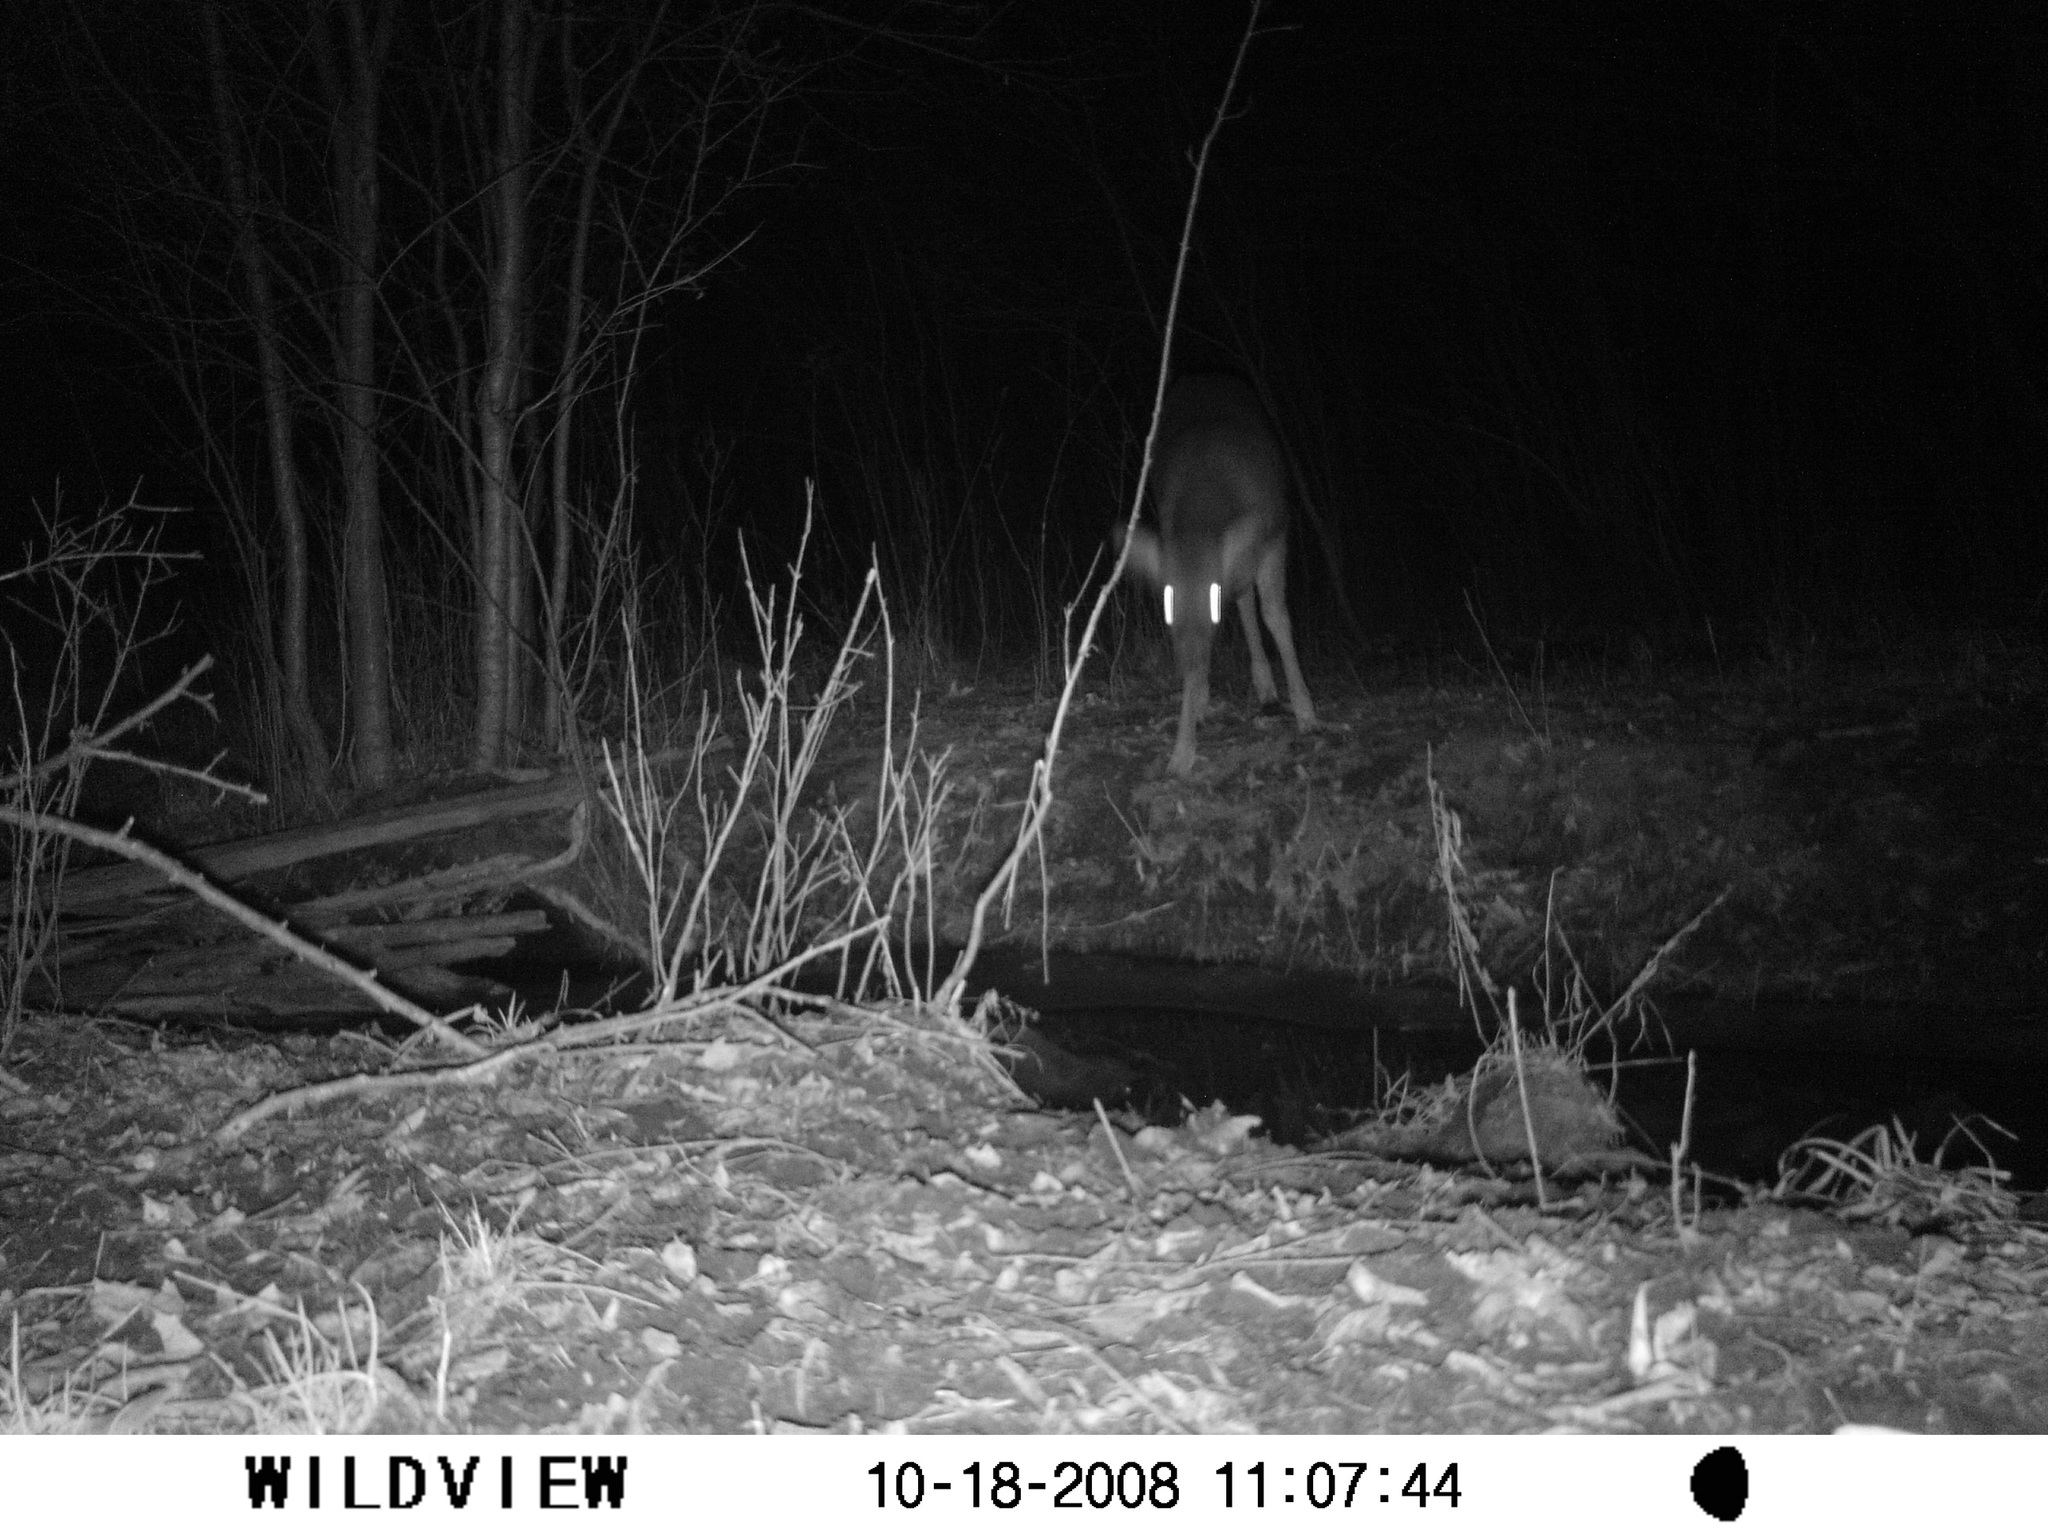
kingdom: Animalia
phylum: Chordata
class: Mammalia
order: Artiodactyla
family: Cervidae
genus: Odocoileus
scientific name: Odocoileus virginianus
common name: White-tailed deer
